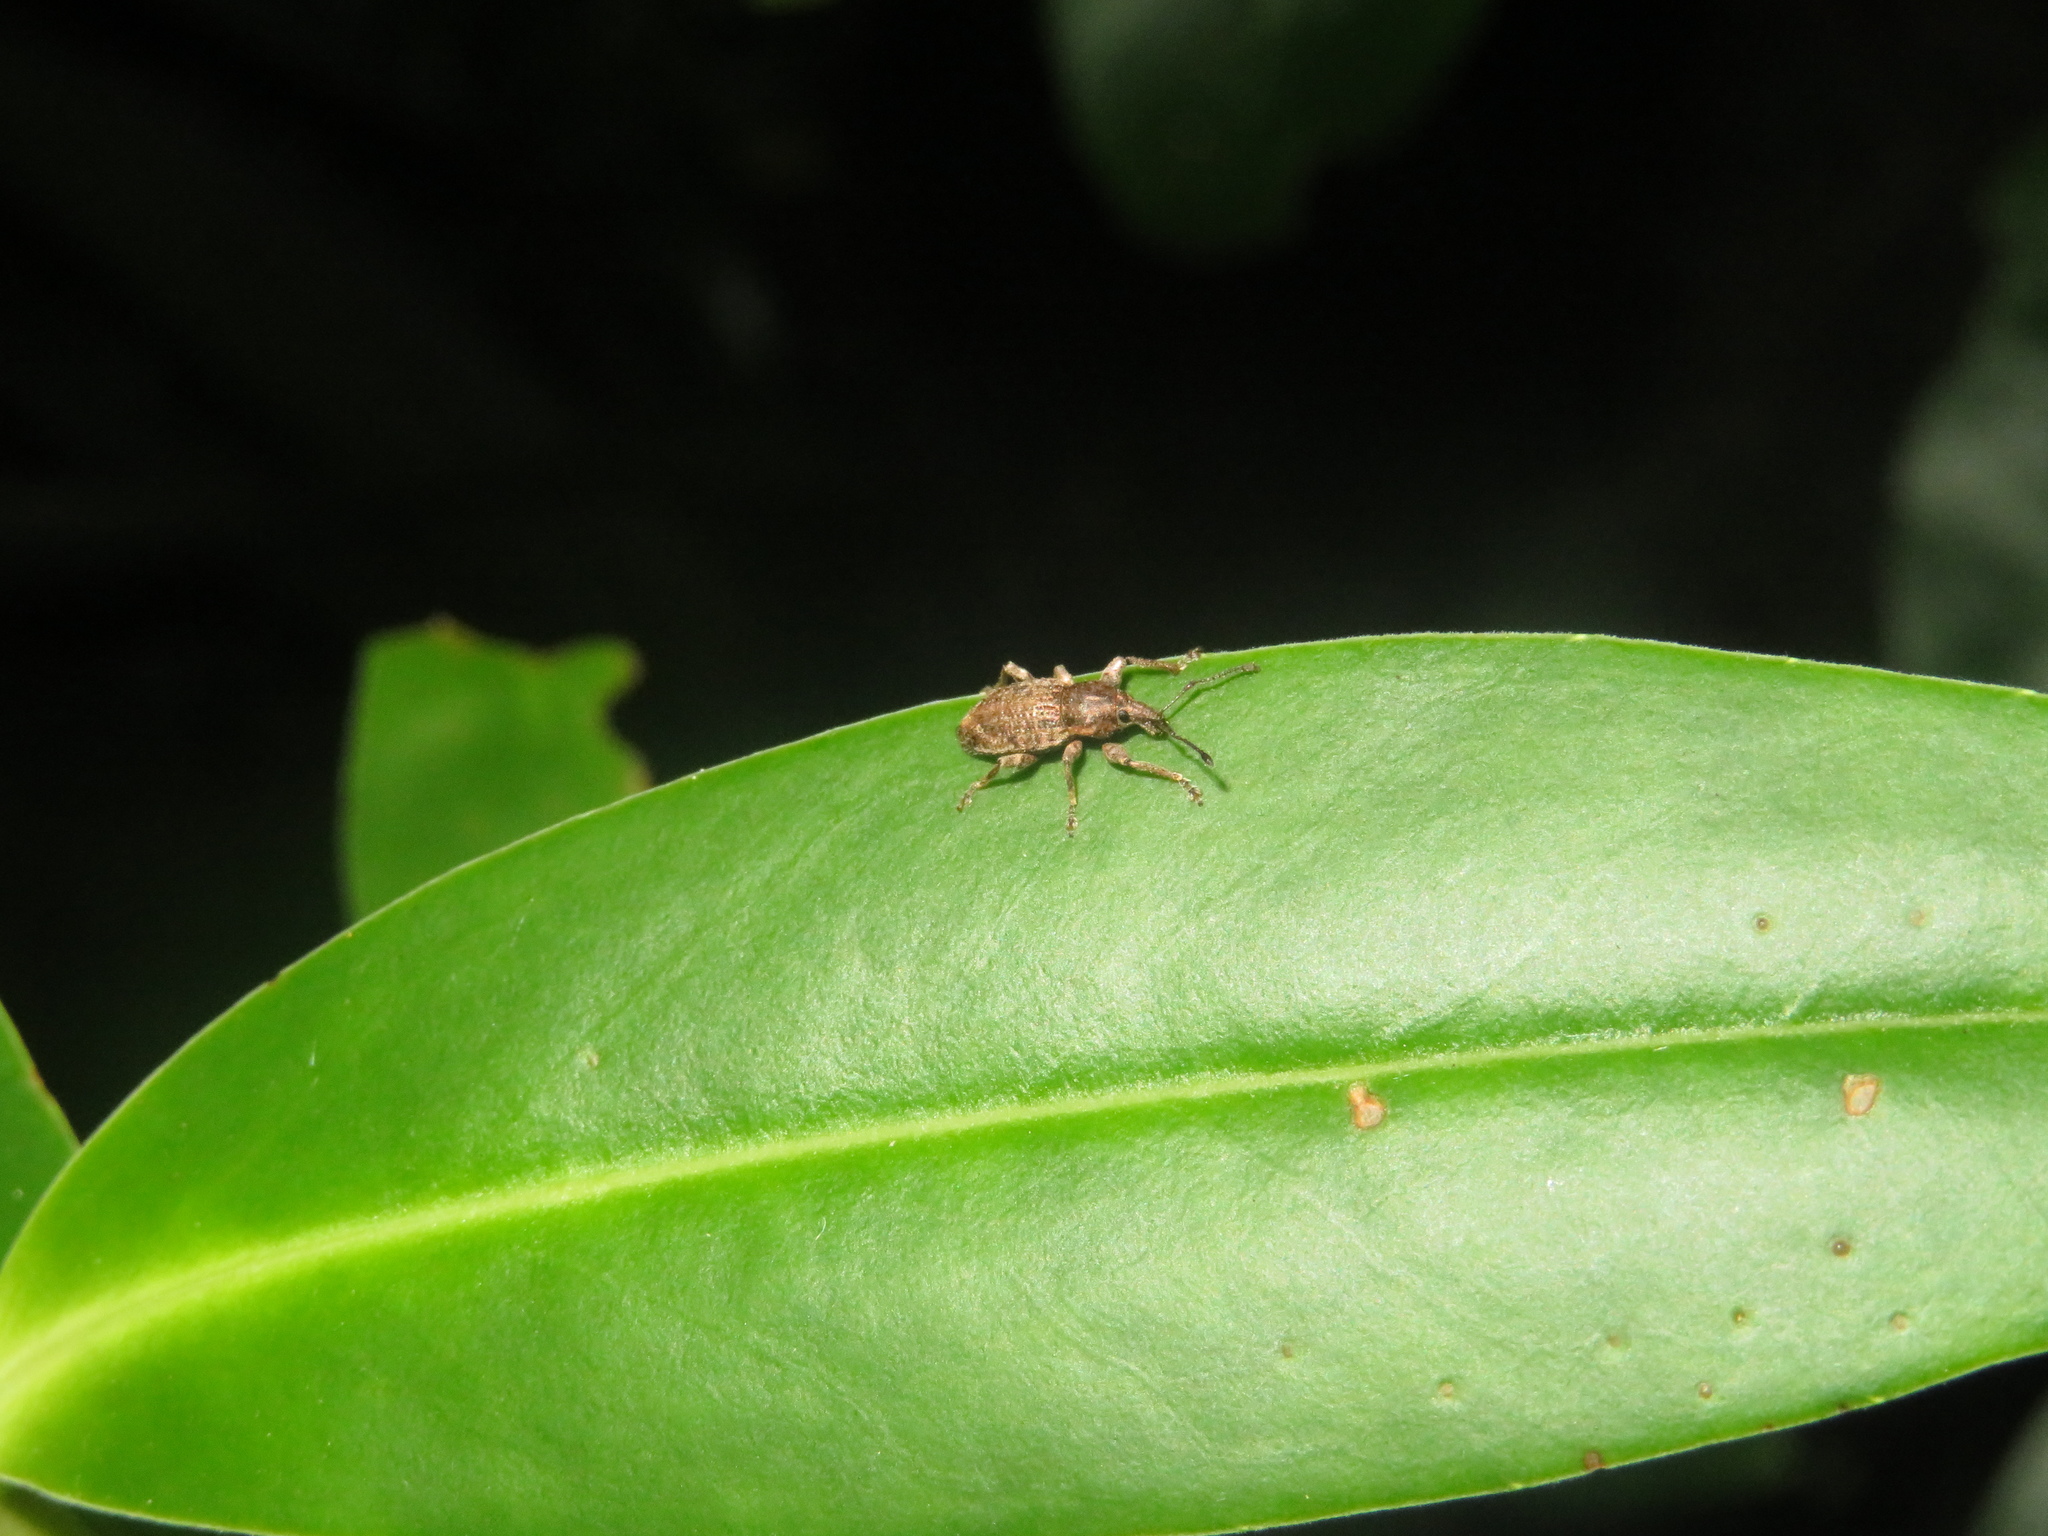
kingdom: Animalia
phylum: Arthropoda
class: Insecta
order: Coleoptera
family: Curculionidae
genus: Chalepistes
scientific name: Chalepistes compressus
